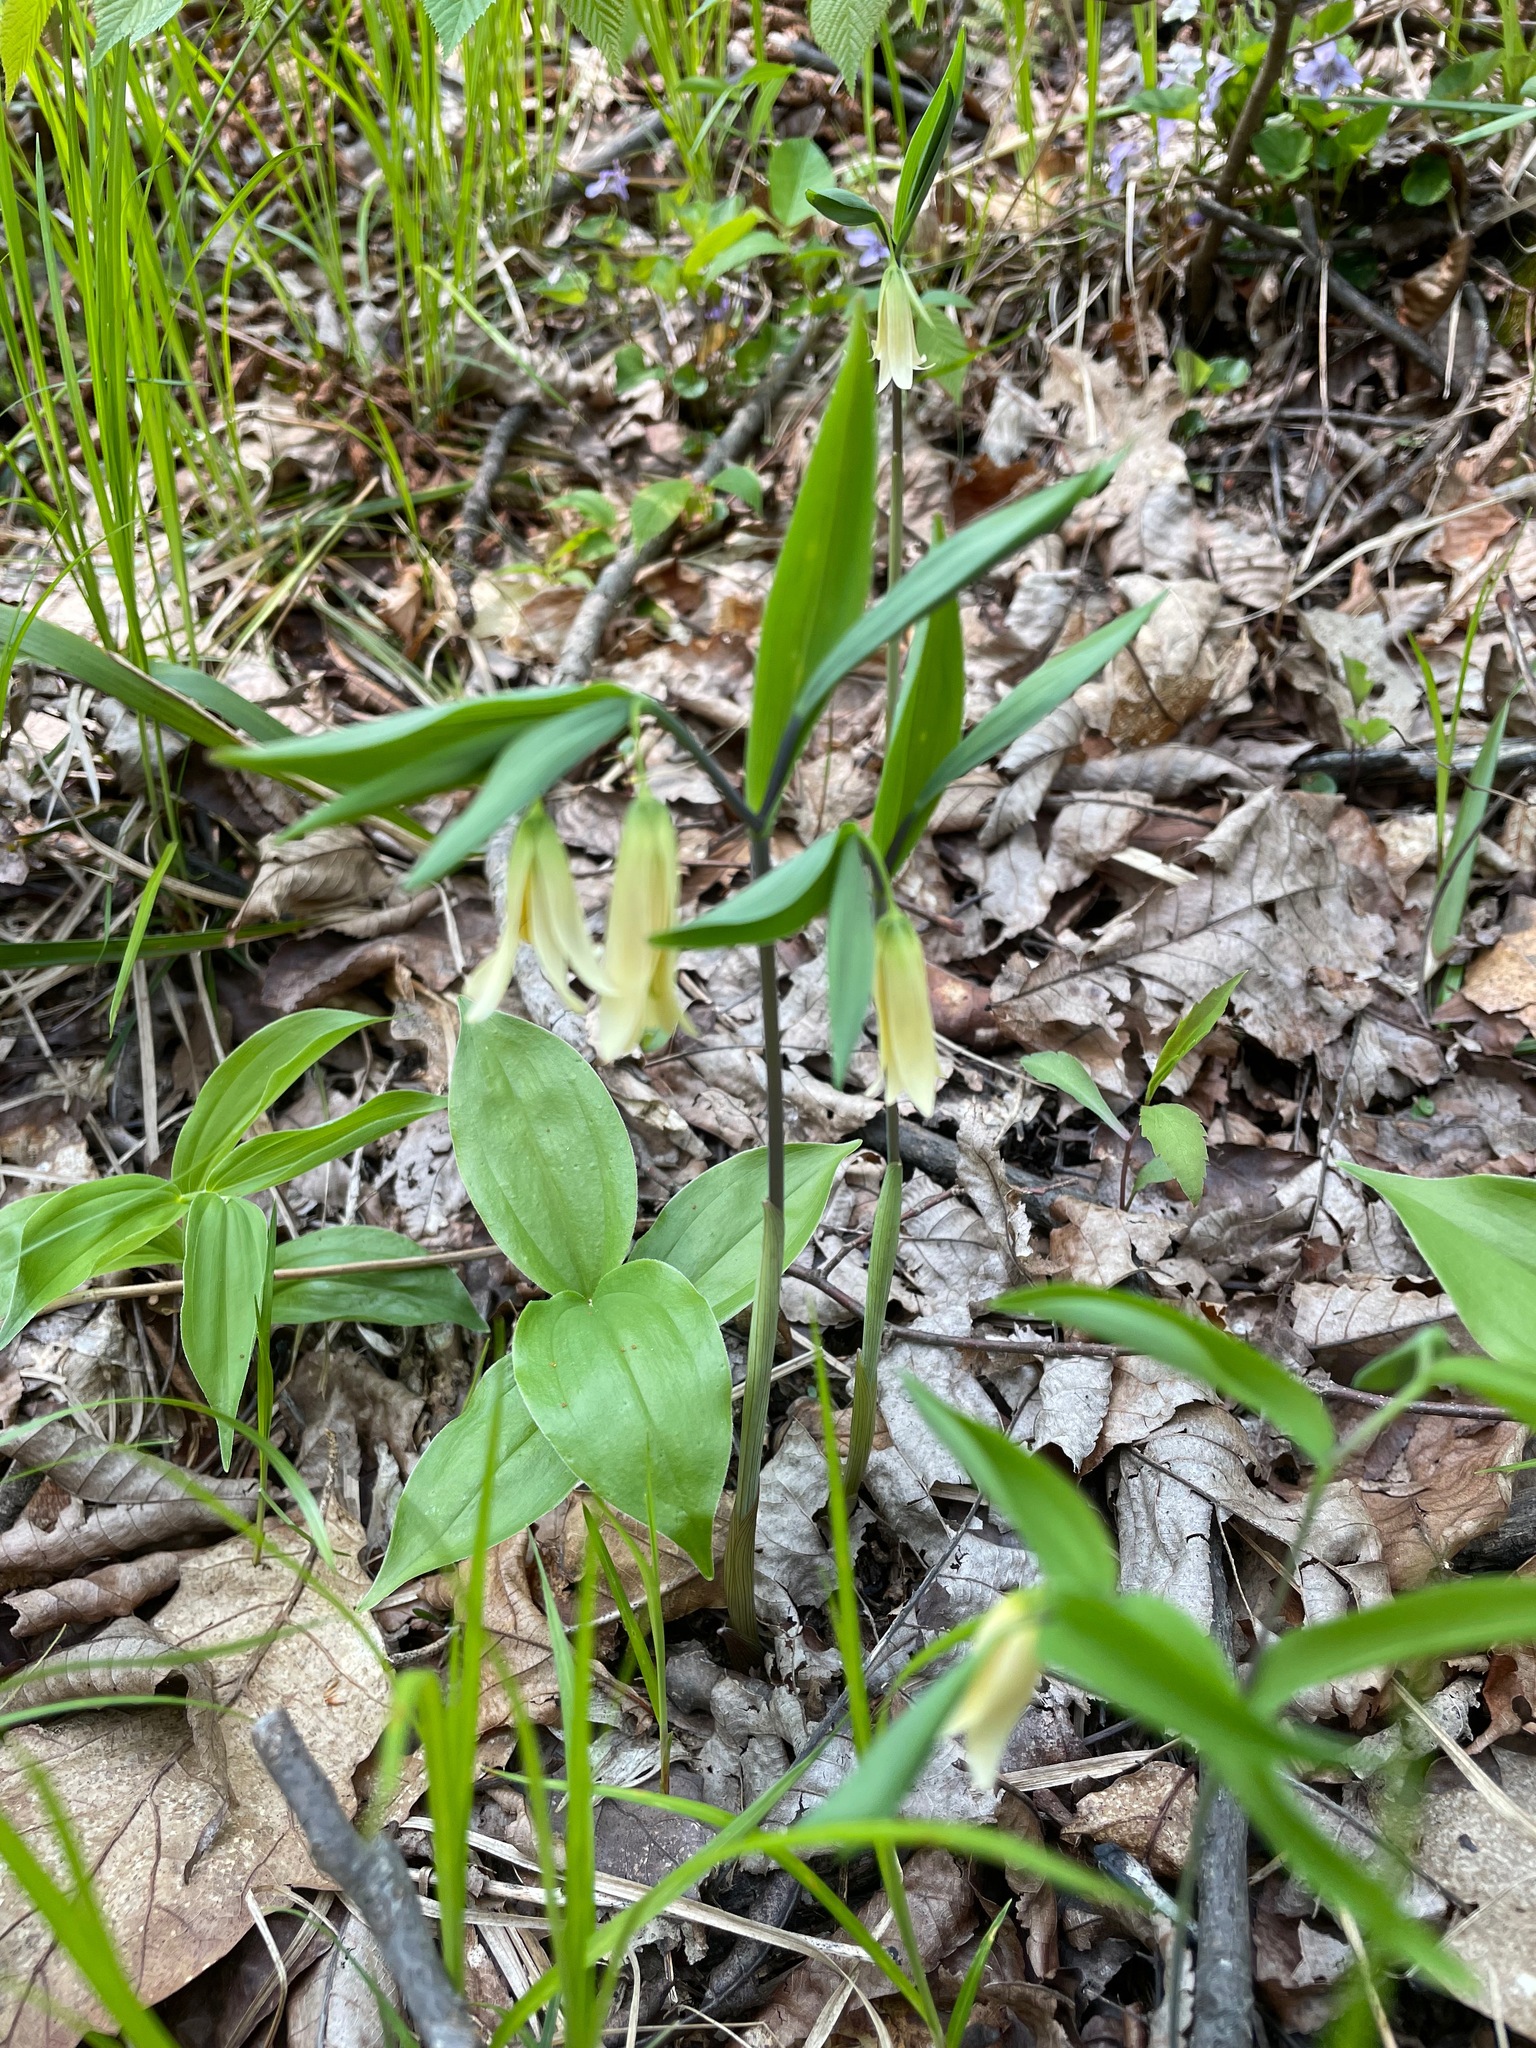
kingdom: Plantae
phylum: Tracheophyta
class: Liliopsida
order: Liliales
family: Colchicaceae
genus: Uvularia
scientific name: Uvularia sessilifolia
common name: Straw-lily
